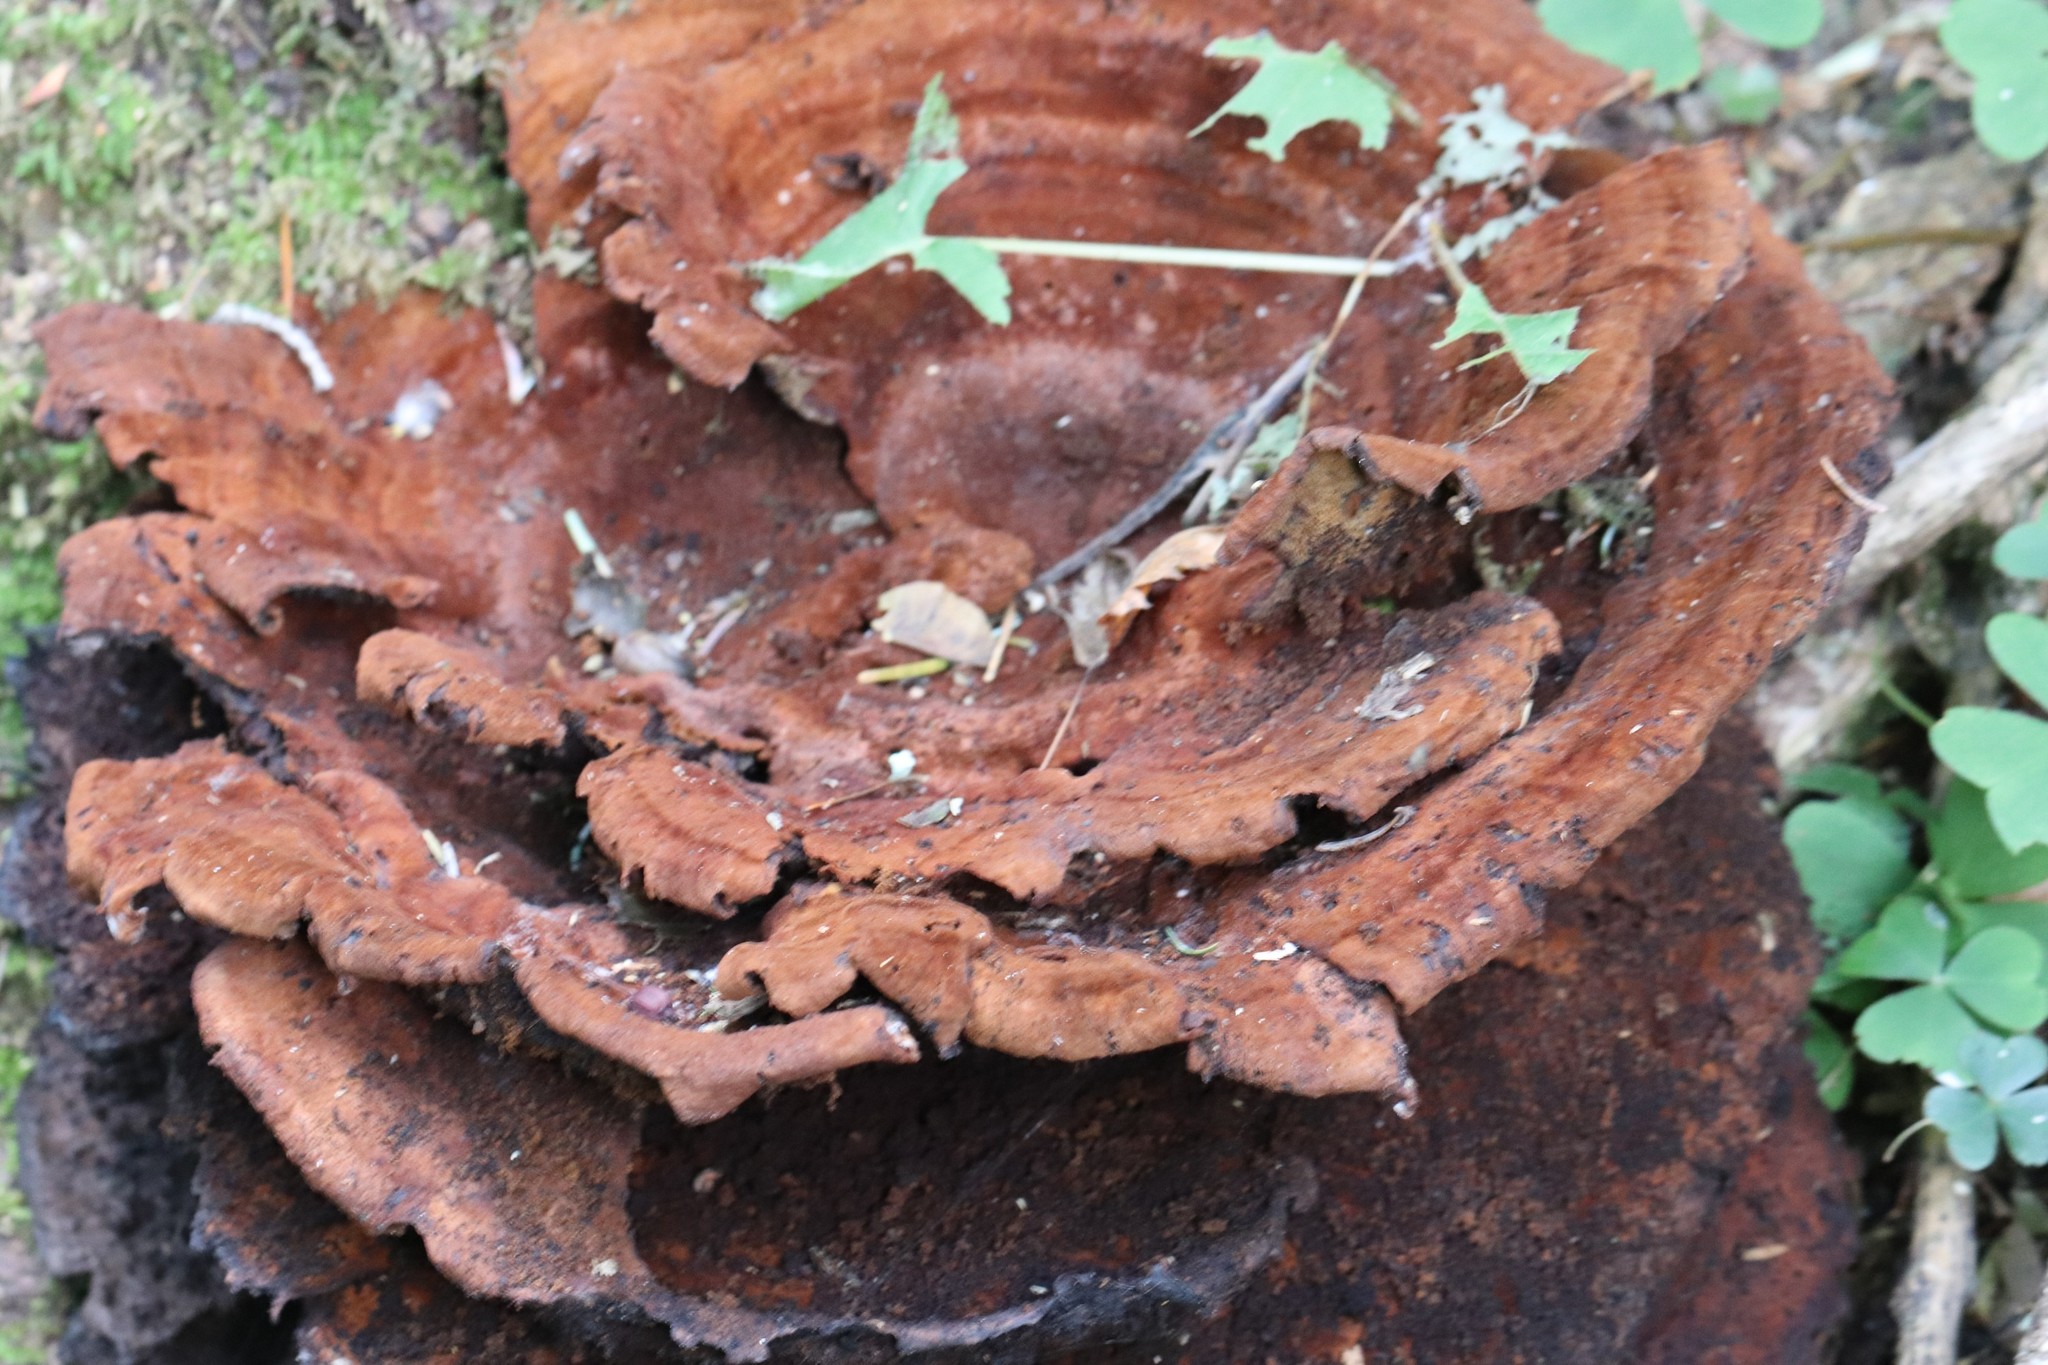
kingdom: Fungi
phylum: Basidiomycota
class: Agaricomycetes
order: Polyporales
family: Laetiporaceae
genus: Phaeolus
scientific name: Phaeolus schweinitzii
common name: Dyer's mazegill
